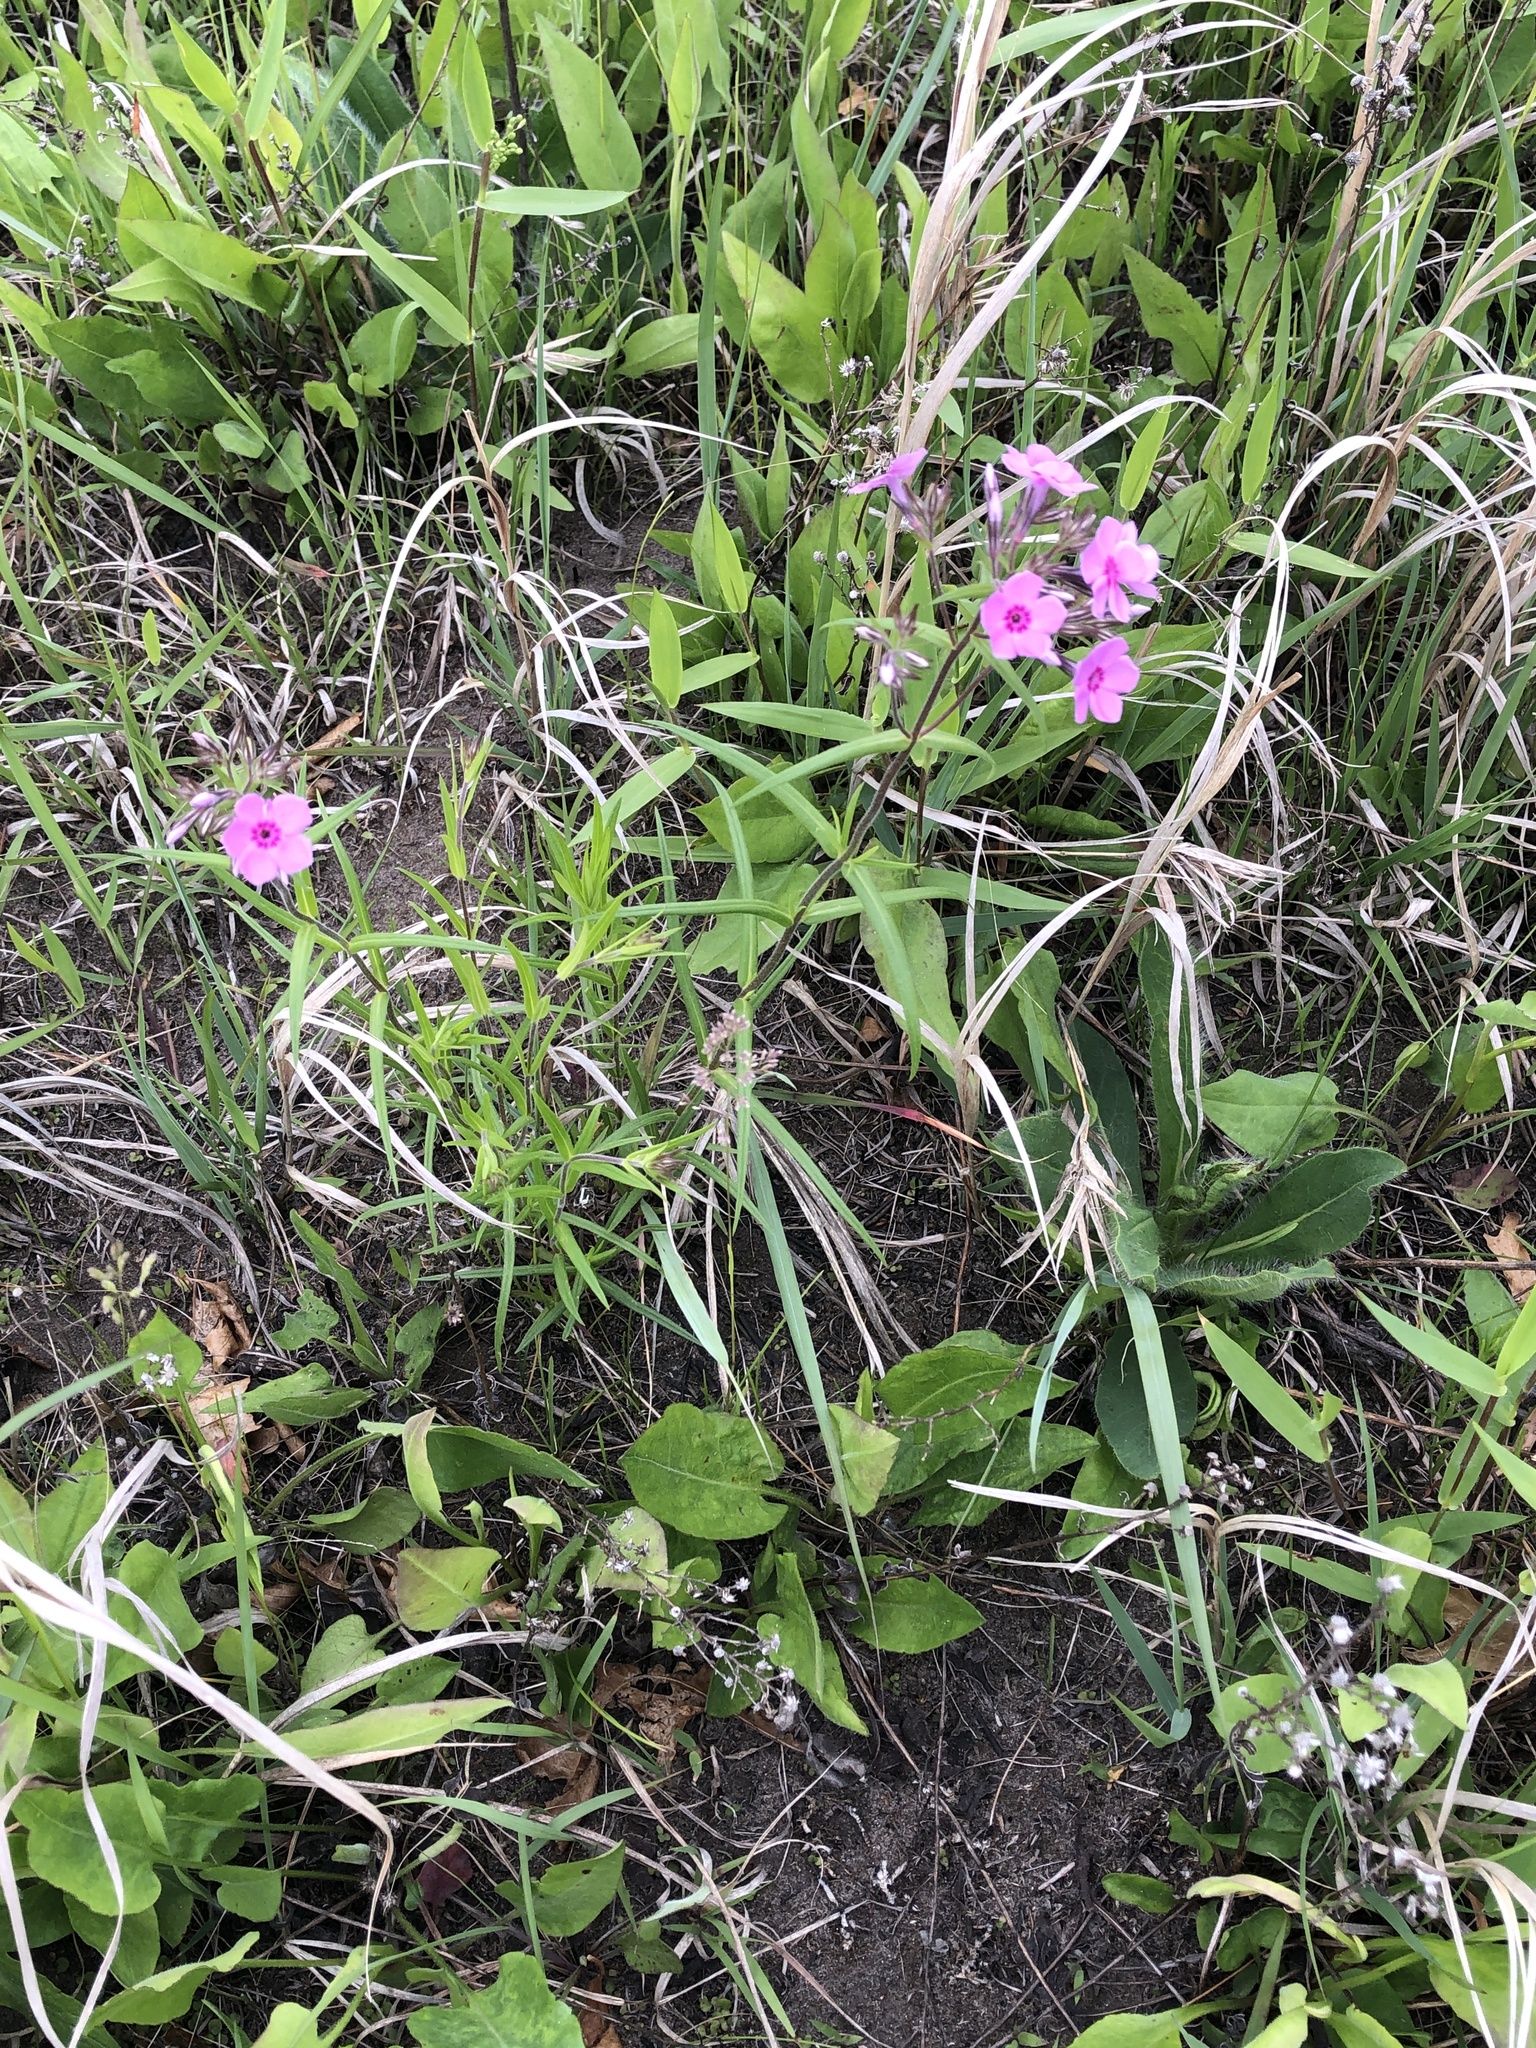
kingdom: Plantae
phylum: Tracheophyta
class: Magnoliopsida
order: Ericales
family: Polemoniaceae
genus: Phlox
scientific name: Phlox pilosa
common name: Prairie phlox
